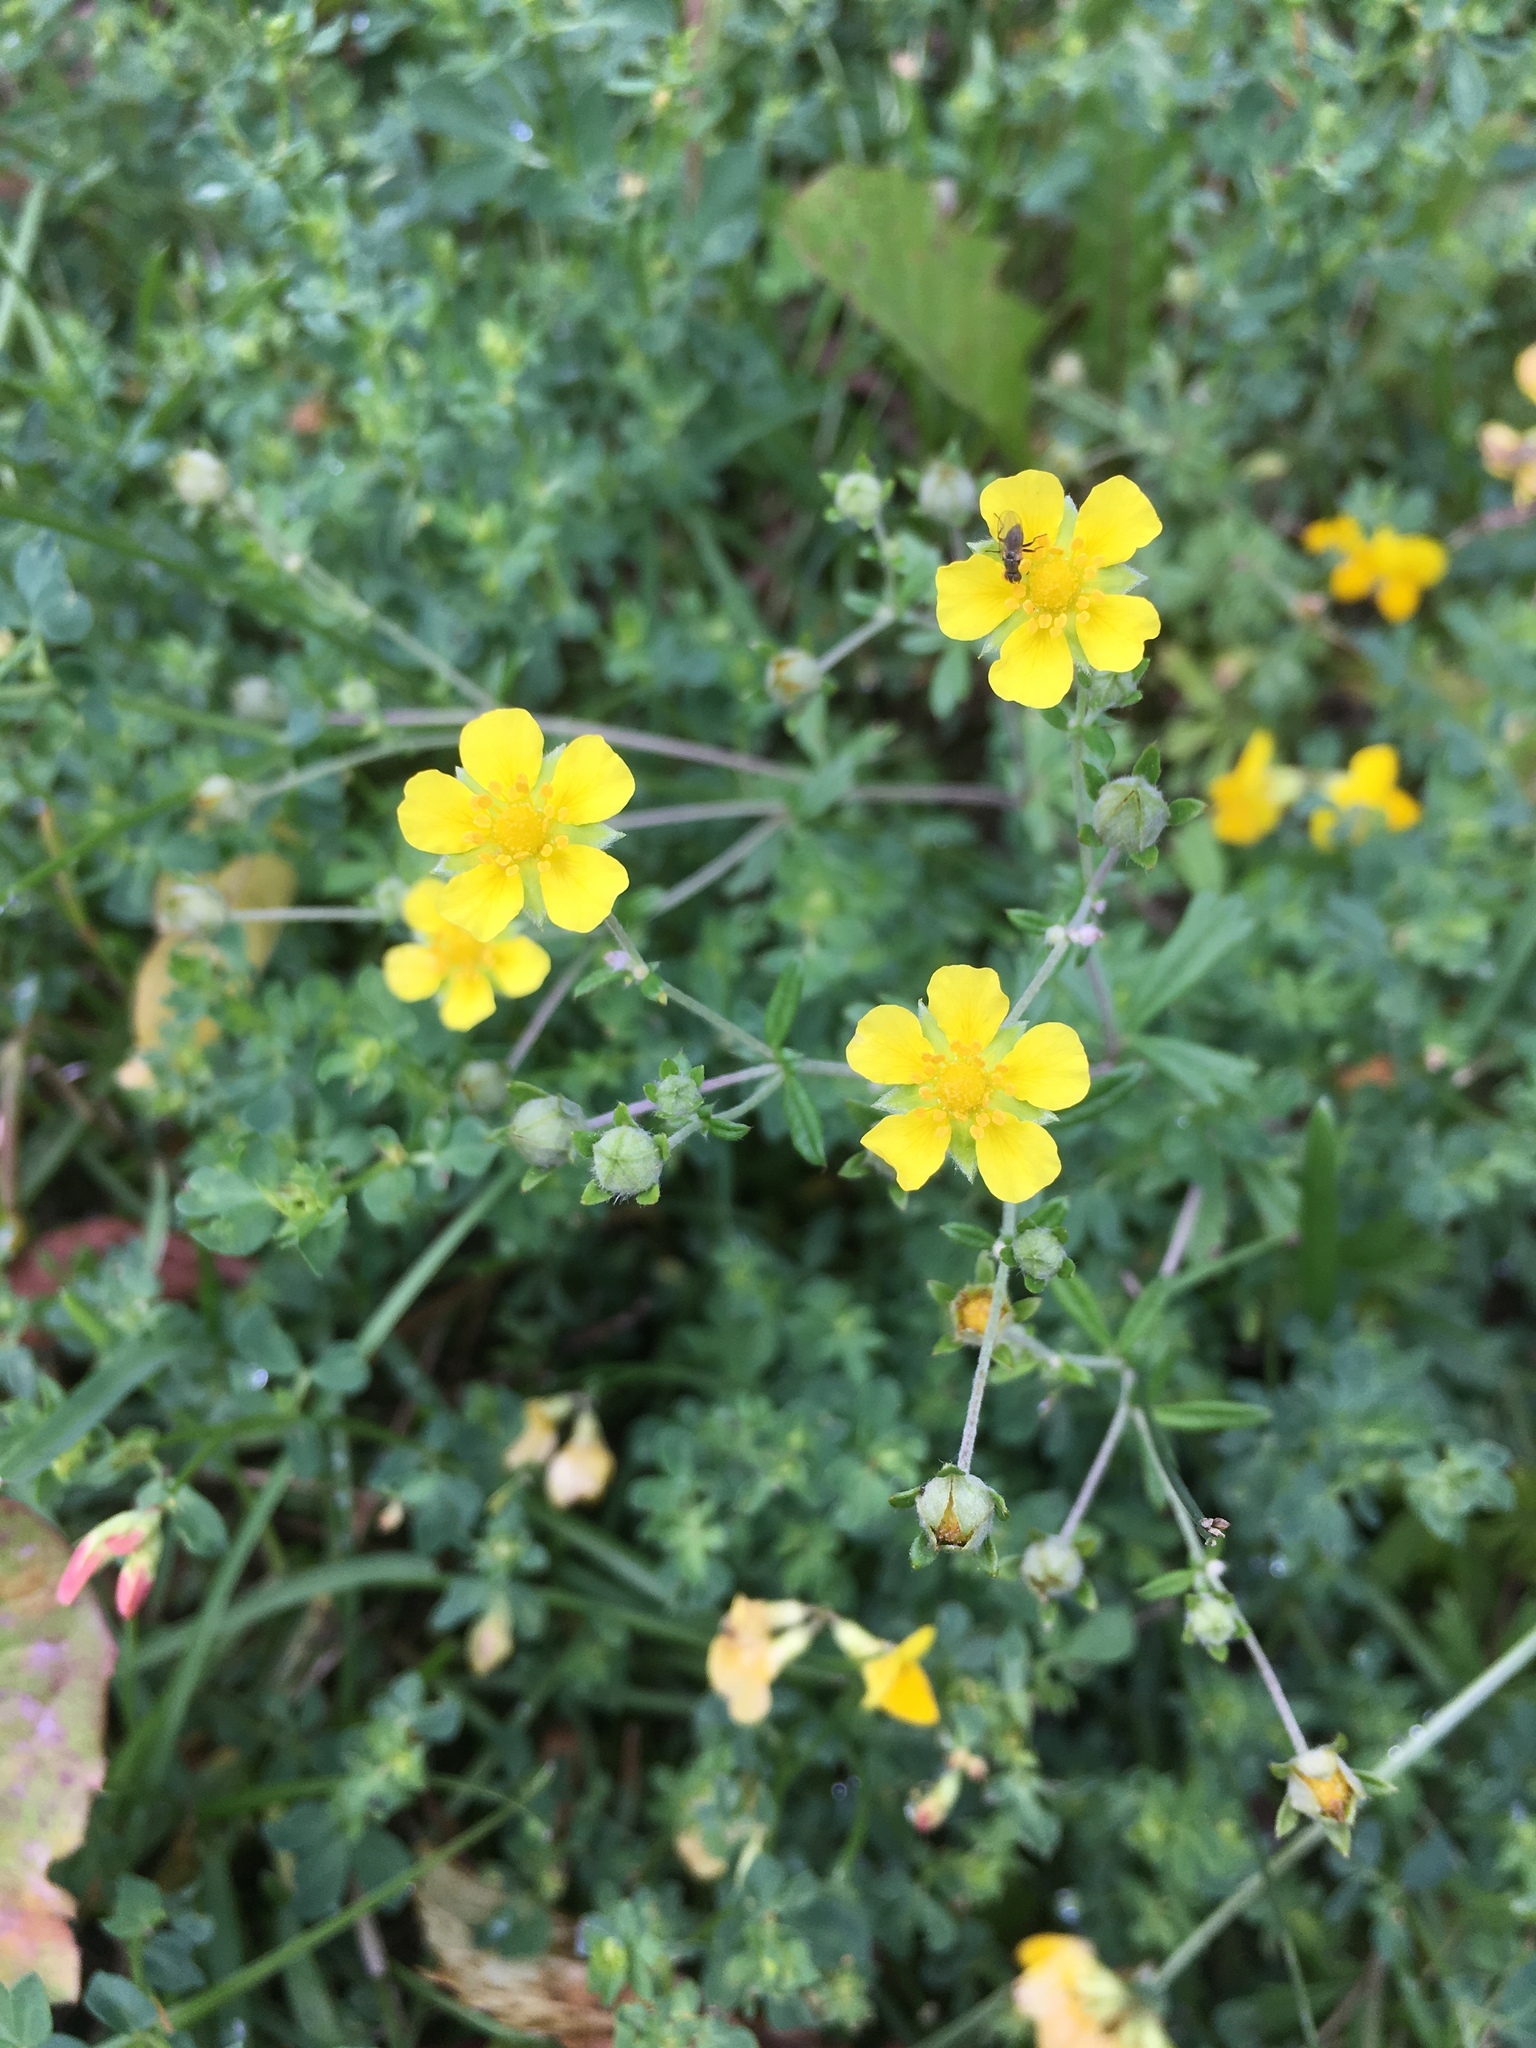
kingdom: Plantae
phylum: Tracheophyta
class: Magnoliopsida
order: Rosales
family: Rosaceae
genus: Potentilla
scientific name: Potentilla argentea
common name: Hoary cinquefoil
